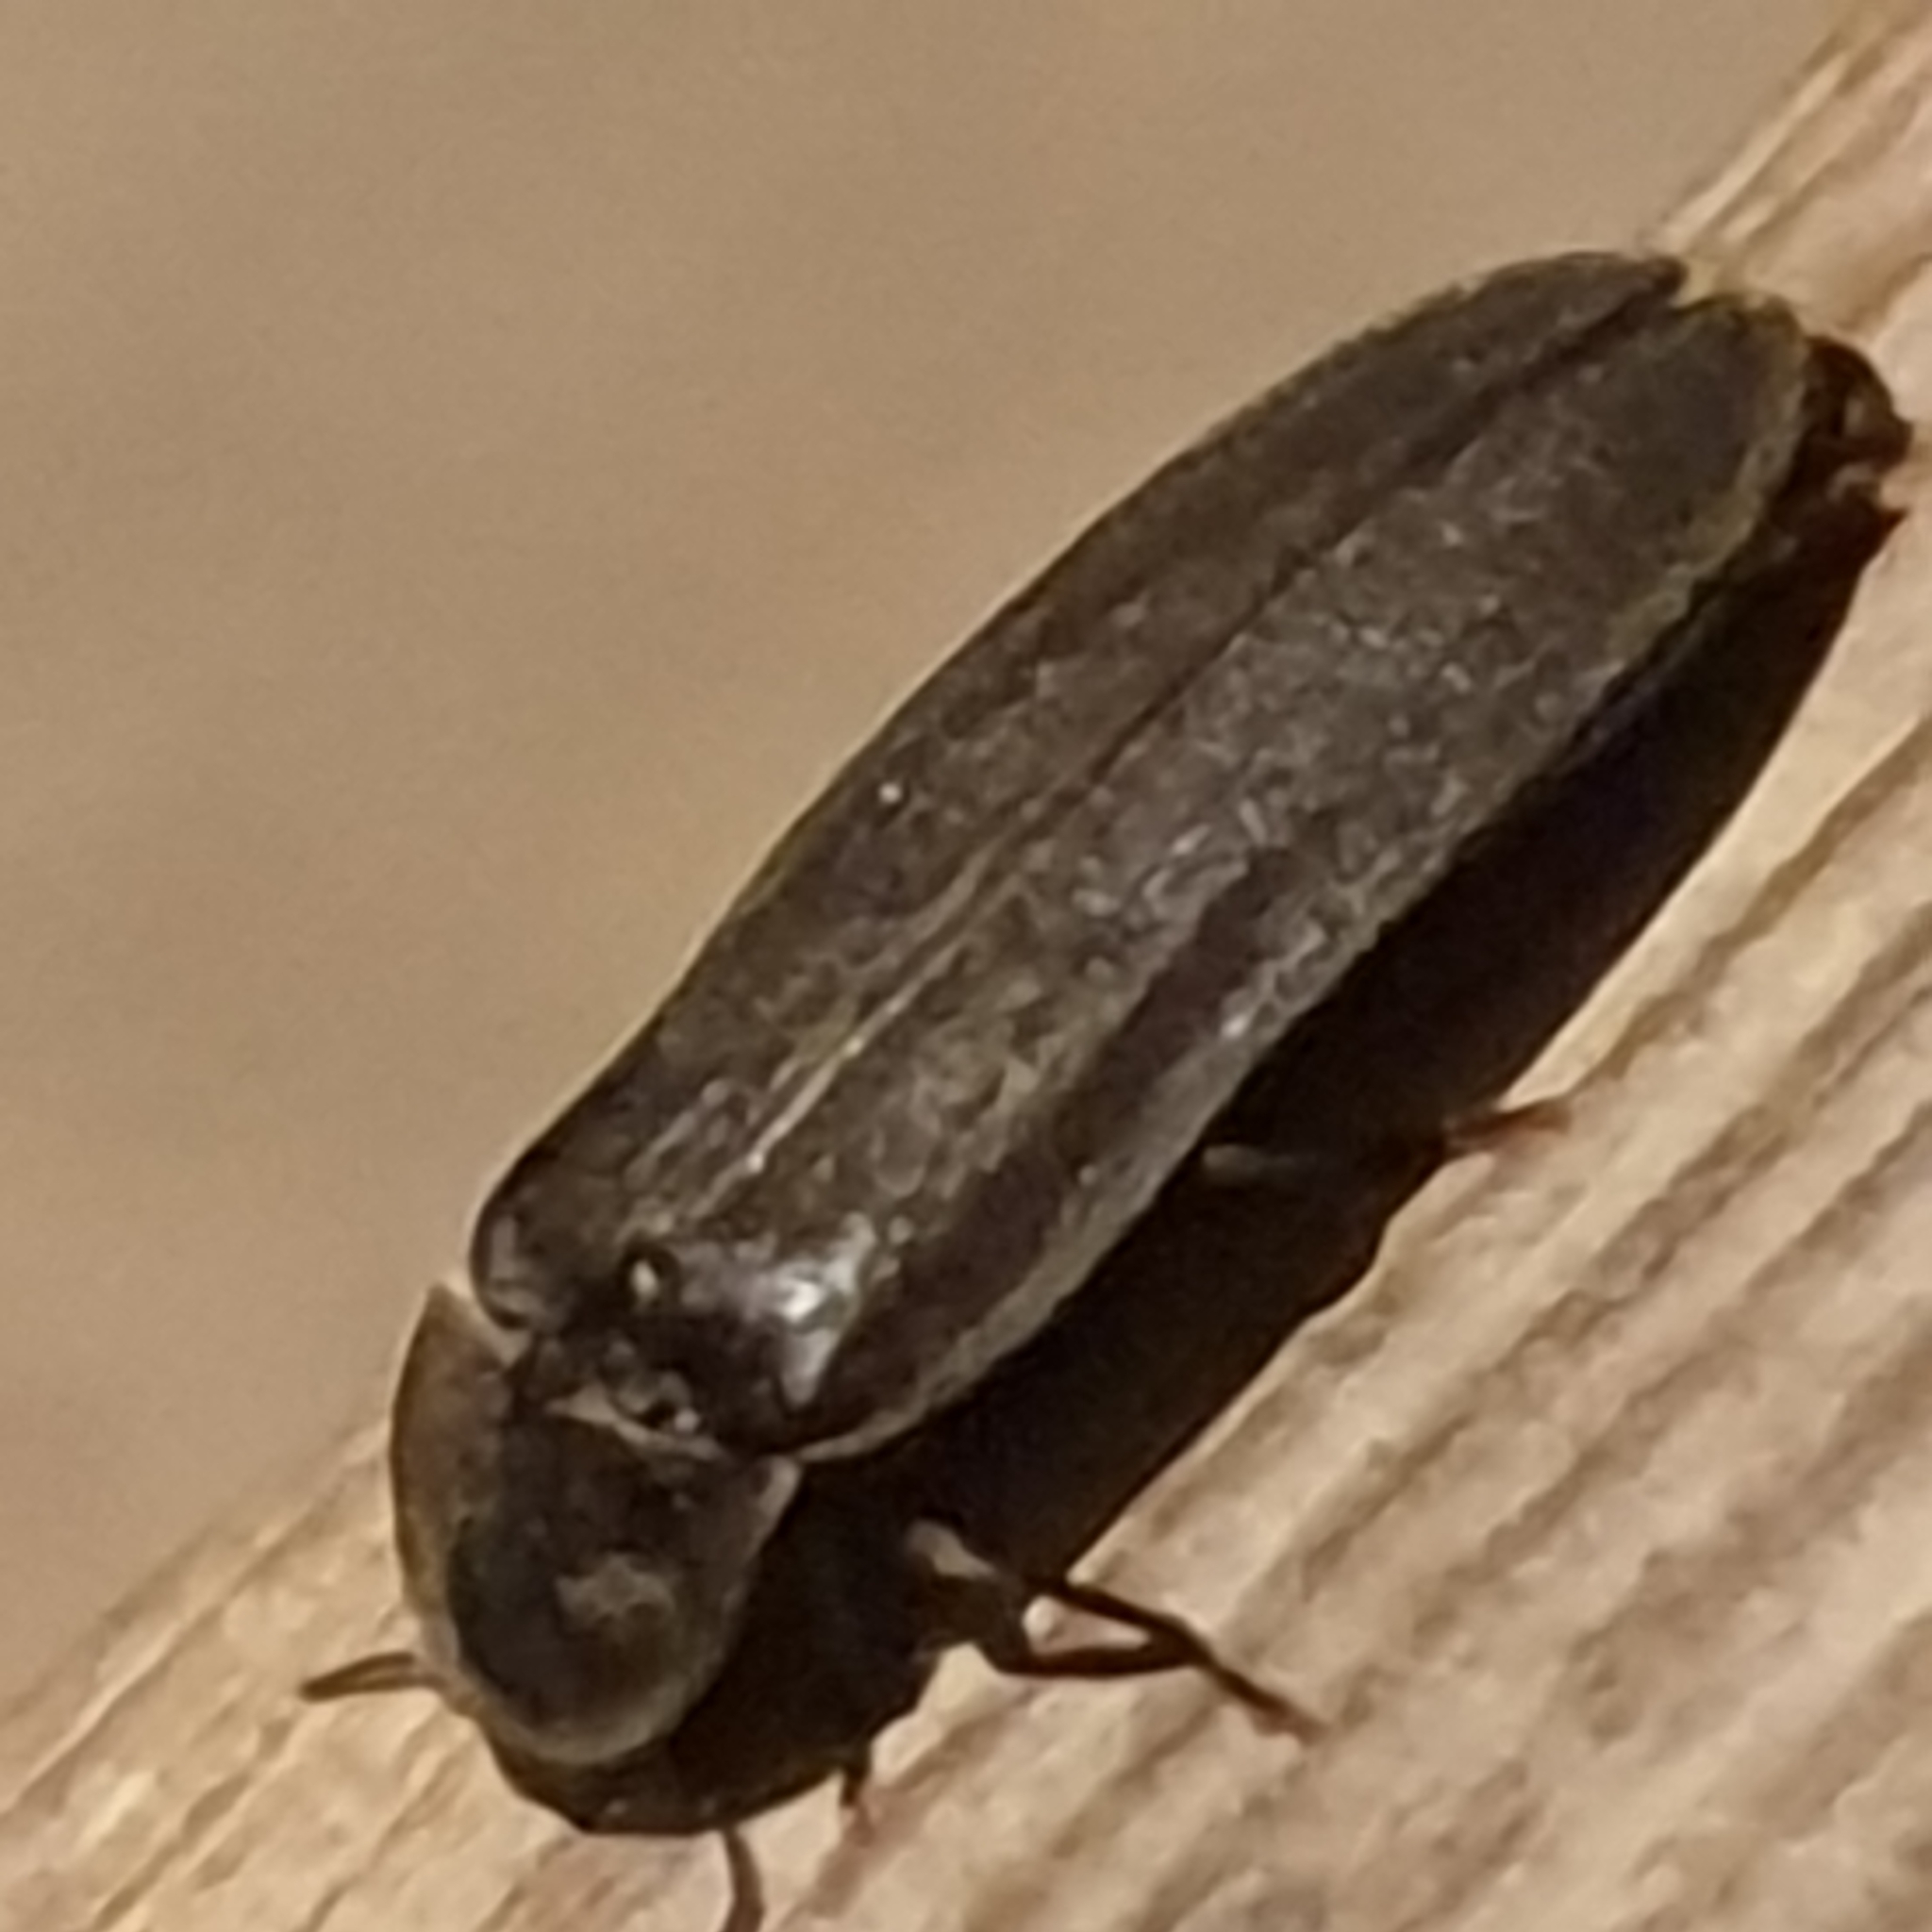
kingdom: Animalia
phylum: Arthropoda
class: Insecta
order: Coleoptera
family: Lampyridae
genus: Lampyris
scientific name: Lampyris noctiluca
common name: Glow-worm
